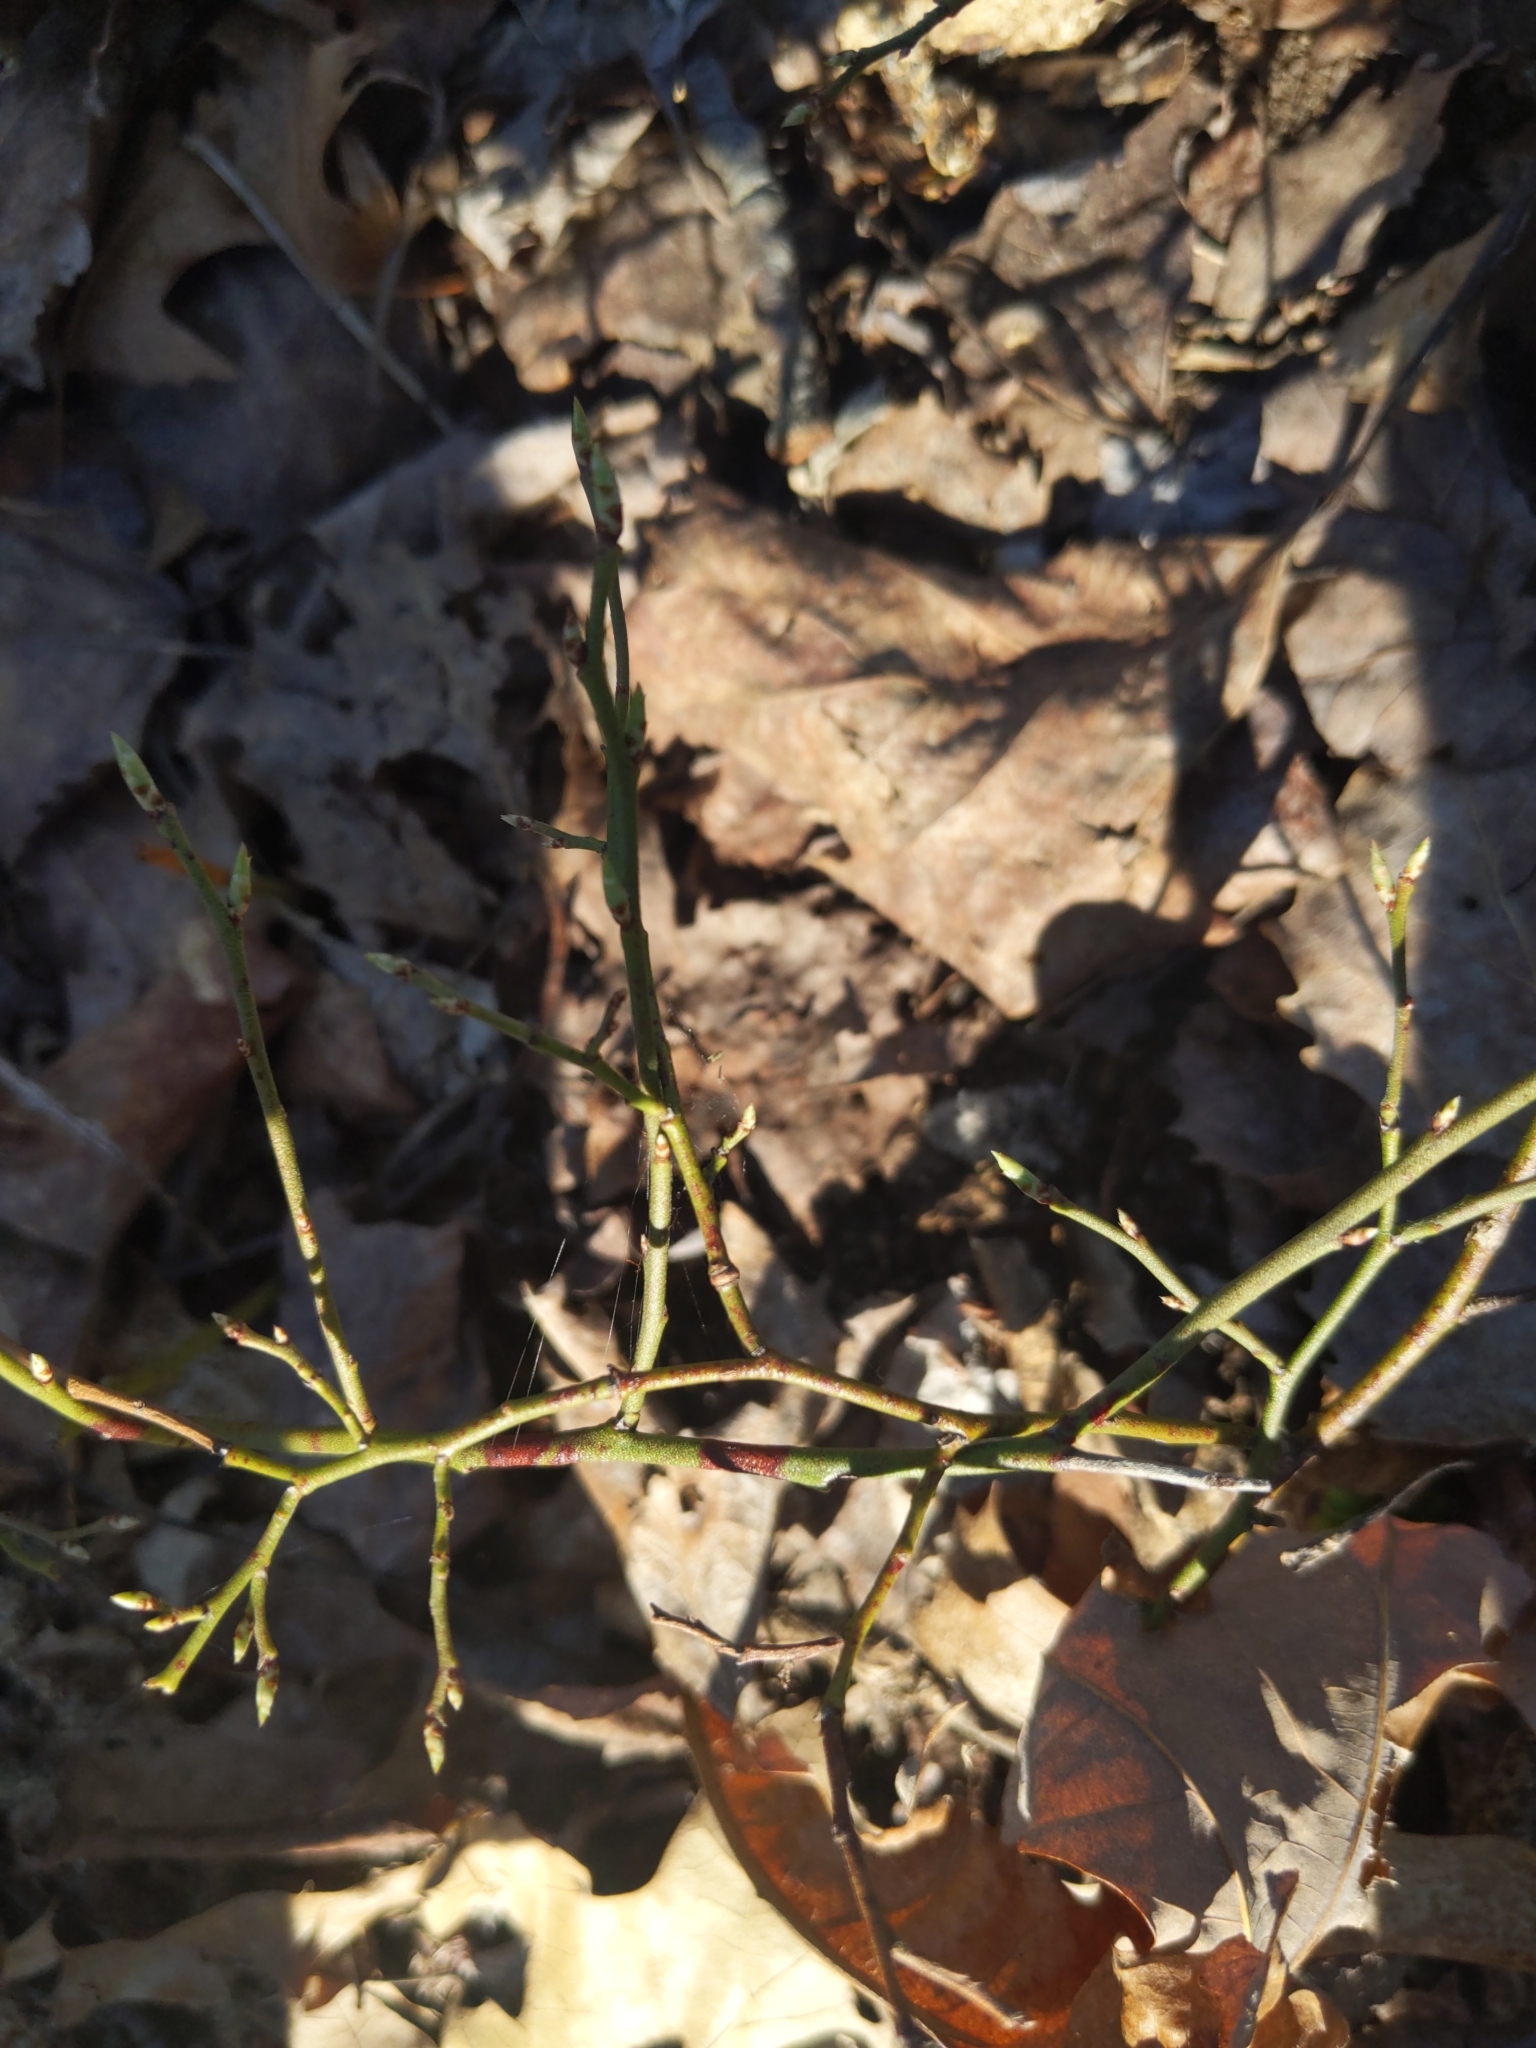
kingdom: Plantae
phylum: Tracheophyta
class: Magnoliopsida
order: Ericales
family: Ericaceae
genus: Vaccinium
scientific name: Vaccinium angustifolium
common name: Early lowbush blueberry
